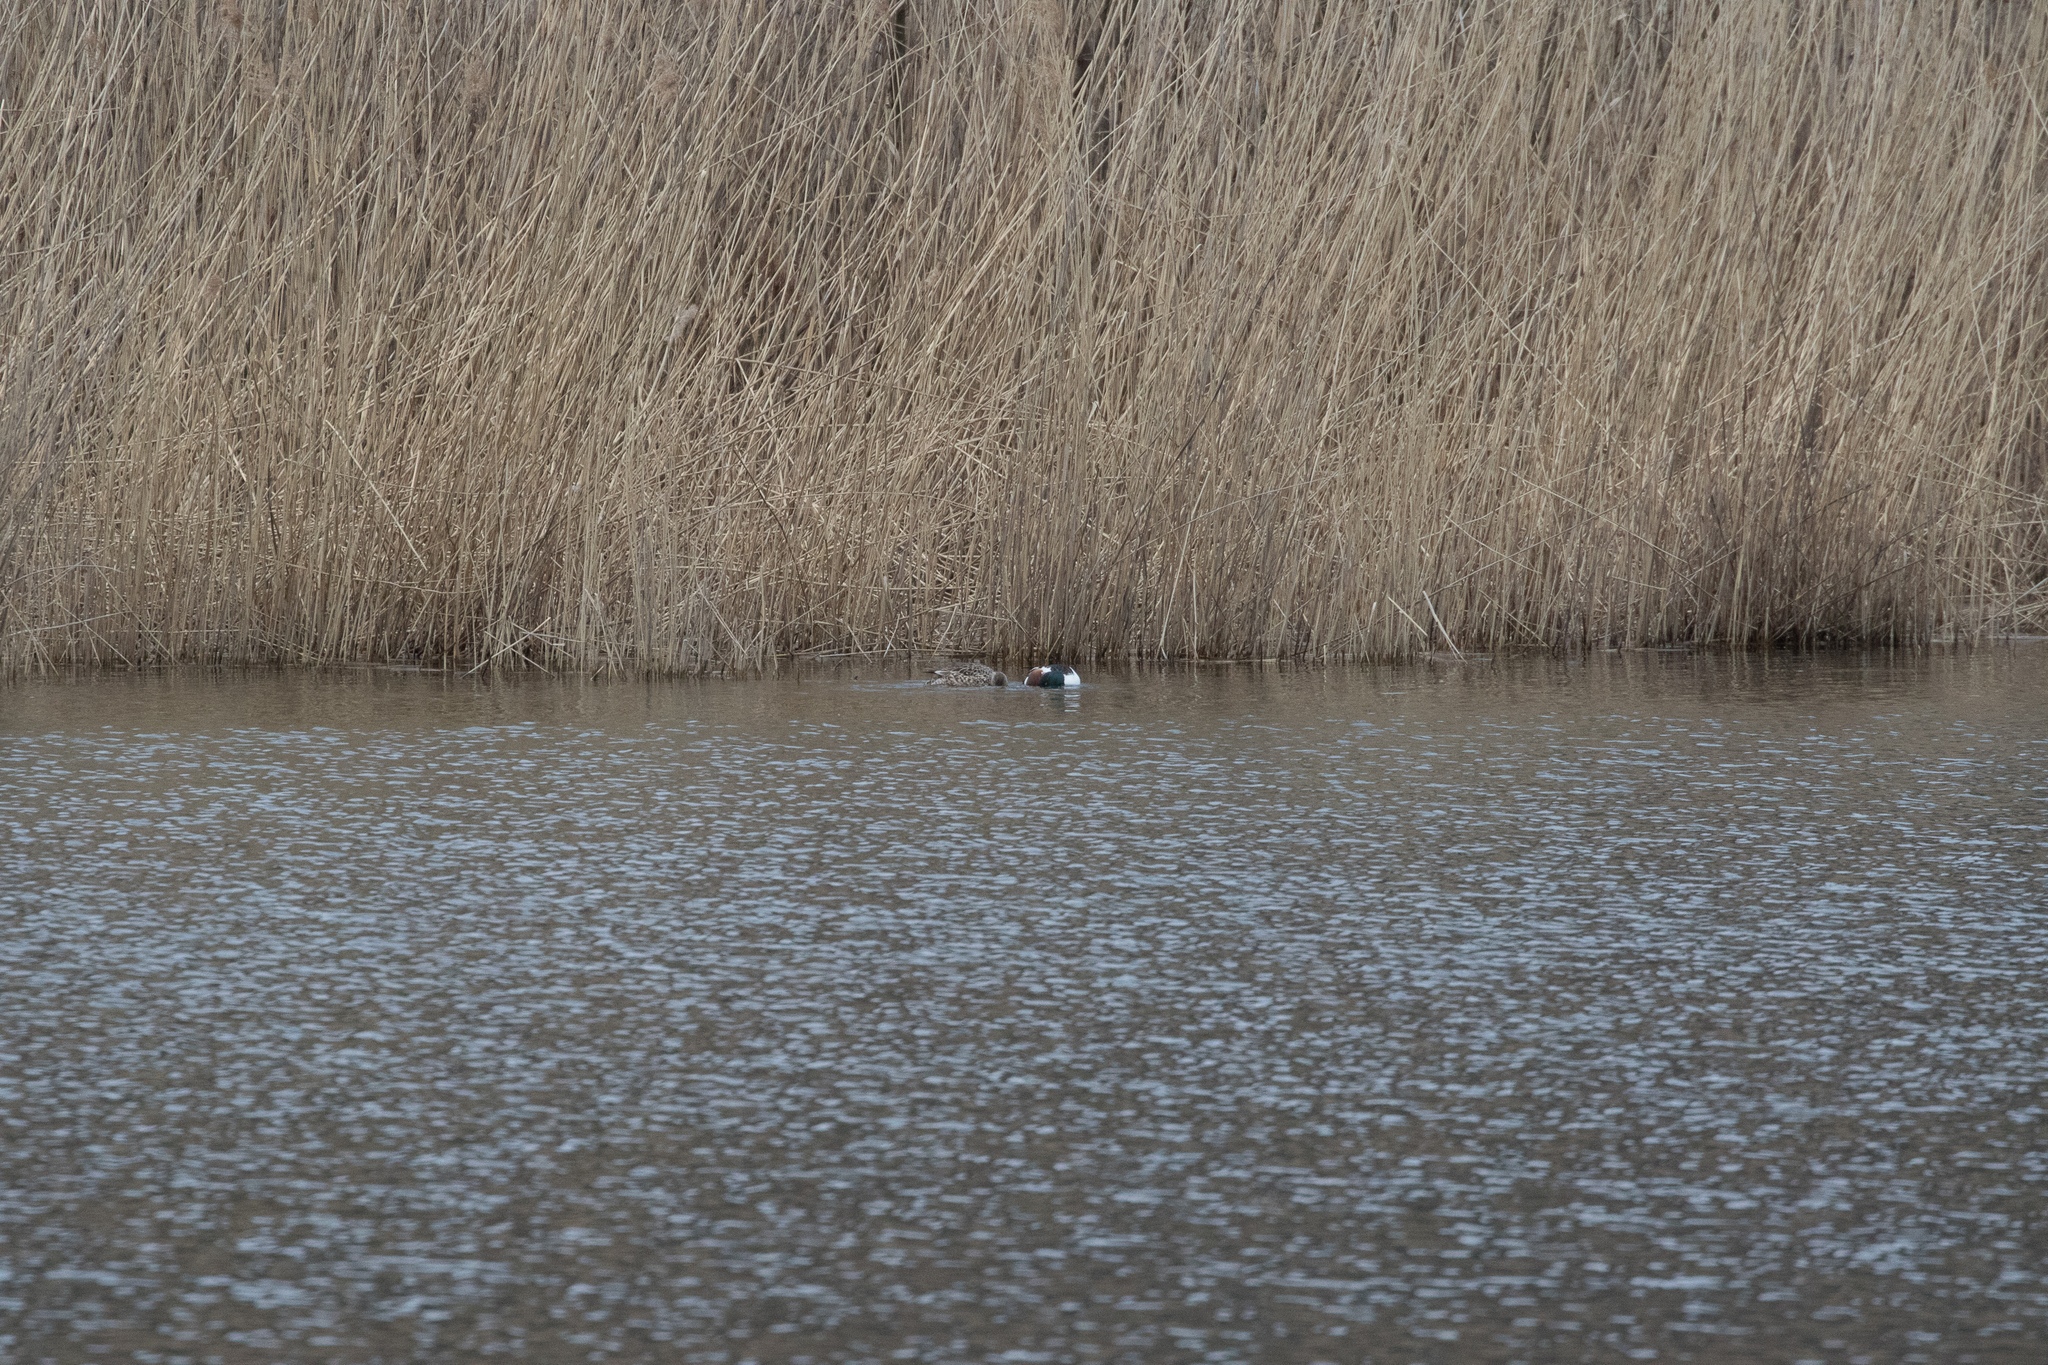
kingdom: Animalia
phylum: Chordata
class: Aves
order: Anseriformes
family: Anatidae
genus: Spatula
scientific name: Spatula clypeata
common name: Northern shoveler
